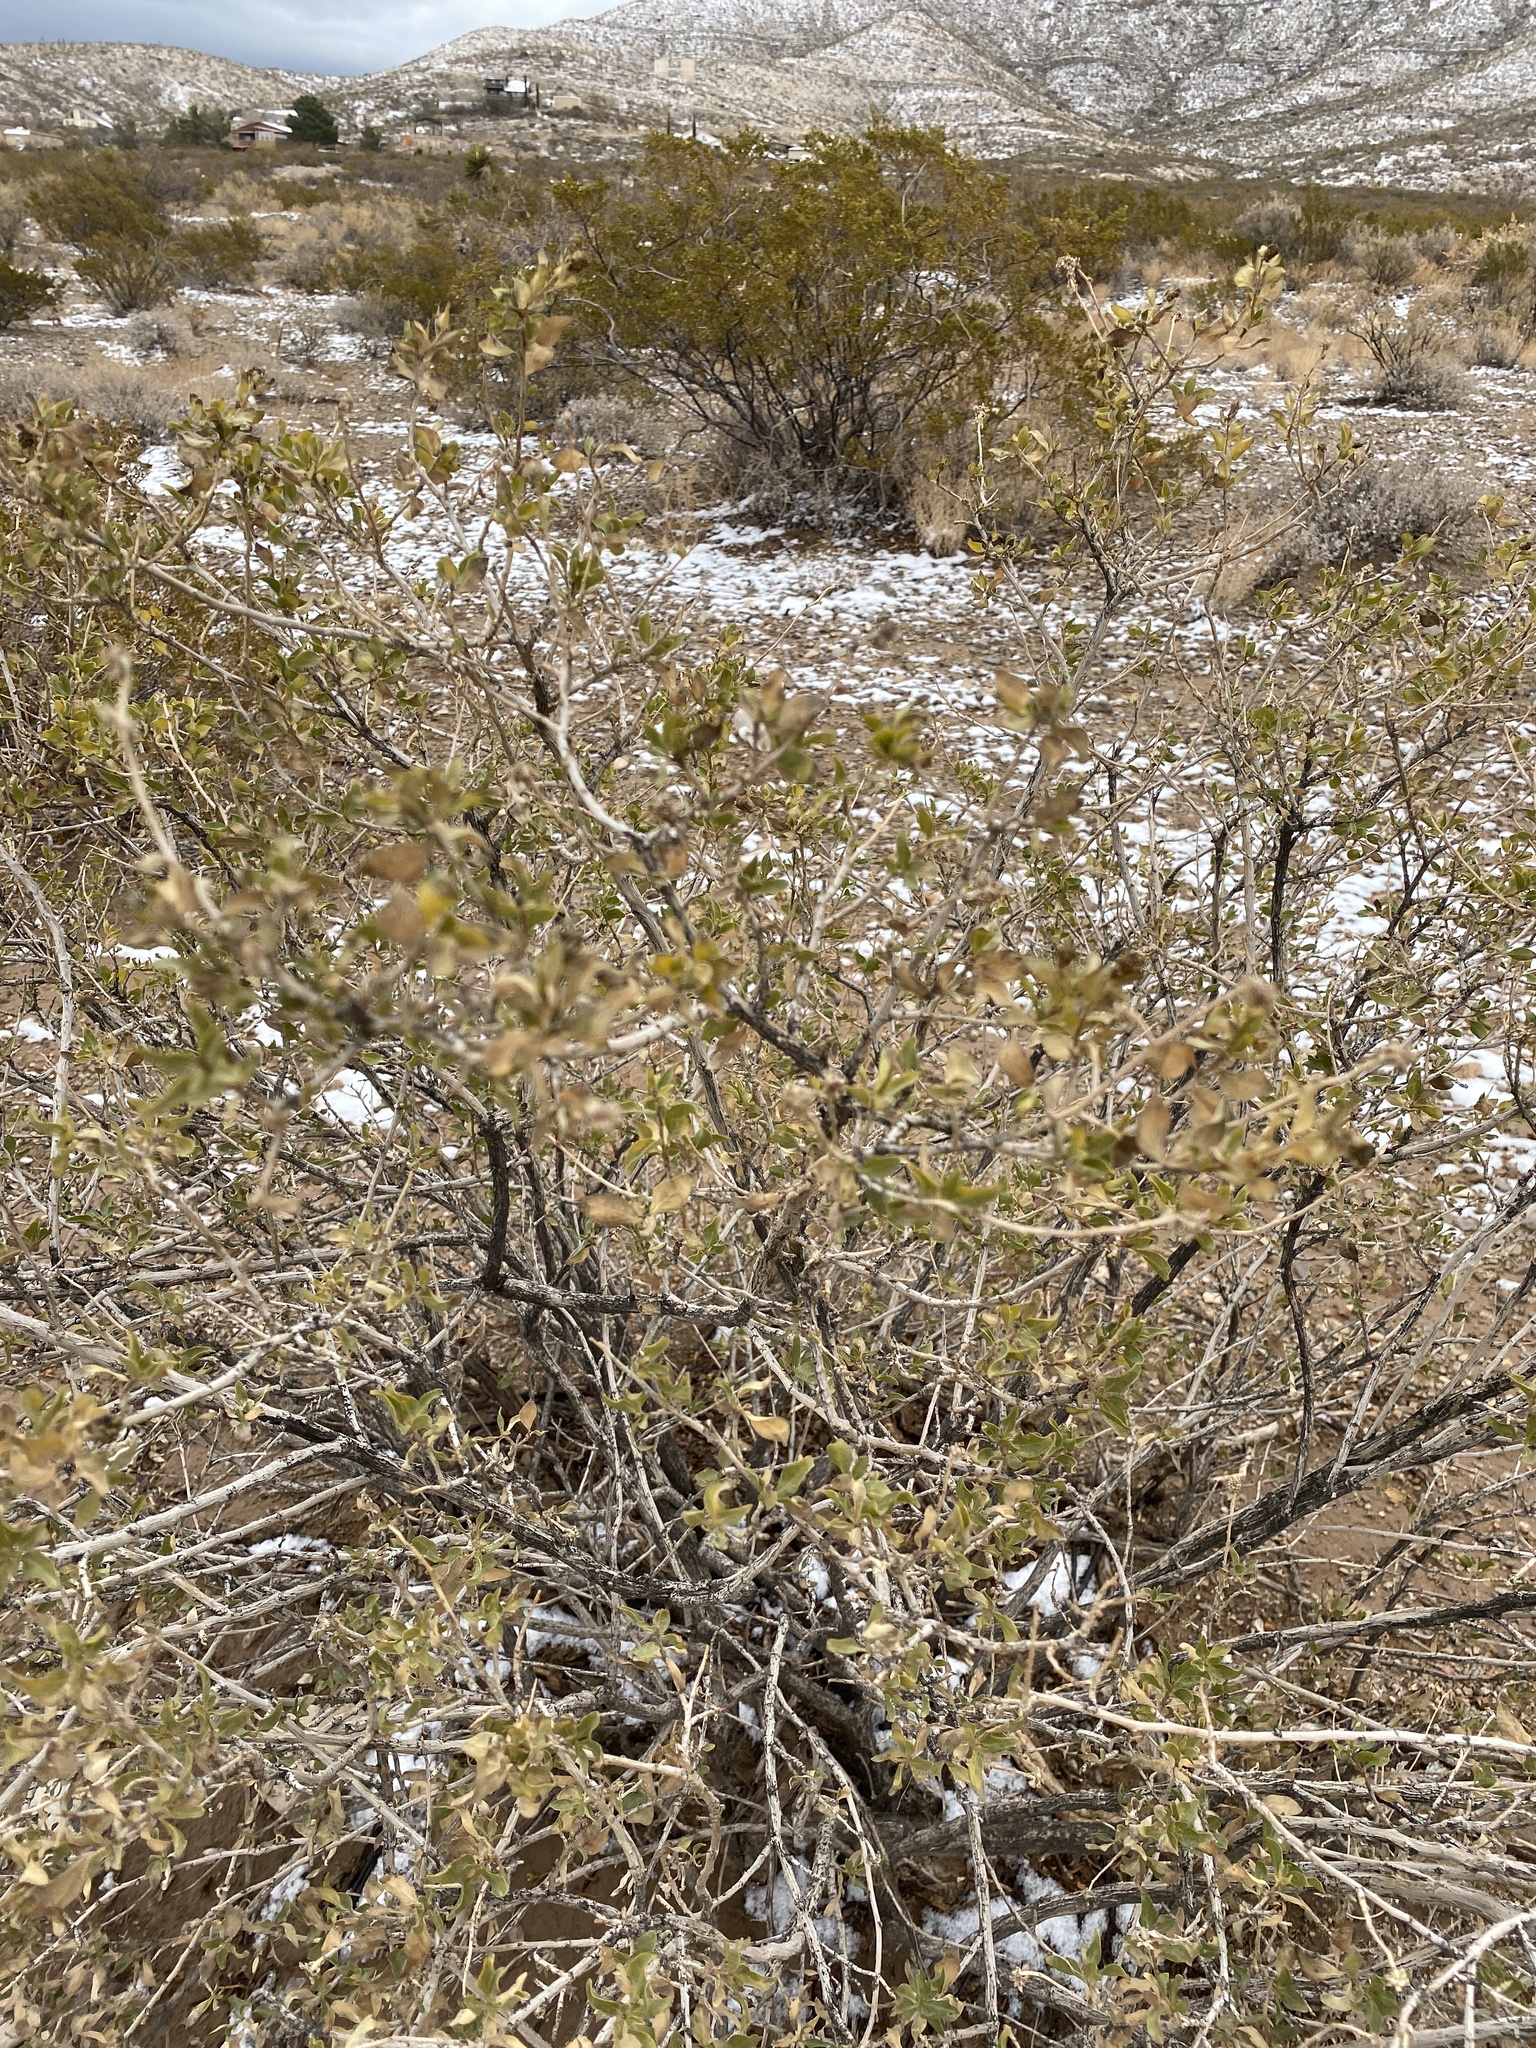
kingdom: Plantae
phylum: Tracheophyta
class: Magnoliopsida
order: Asterales
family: Asteraceae
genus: Flourensia
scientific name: Flourensia cernua
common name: Varnishbush
